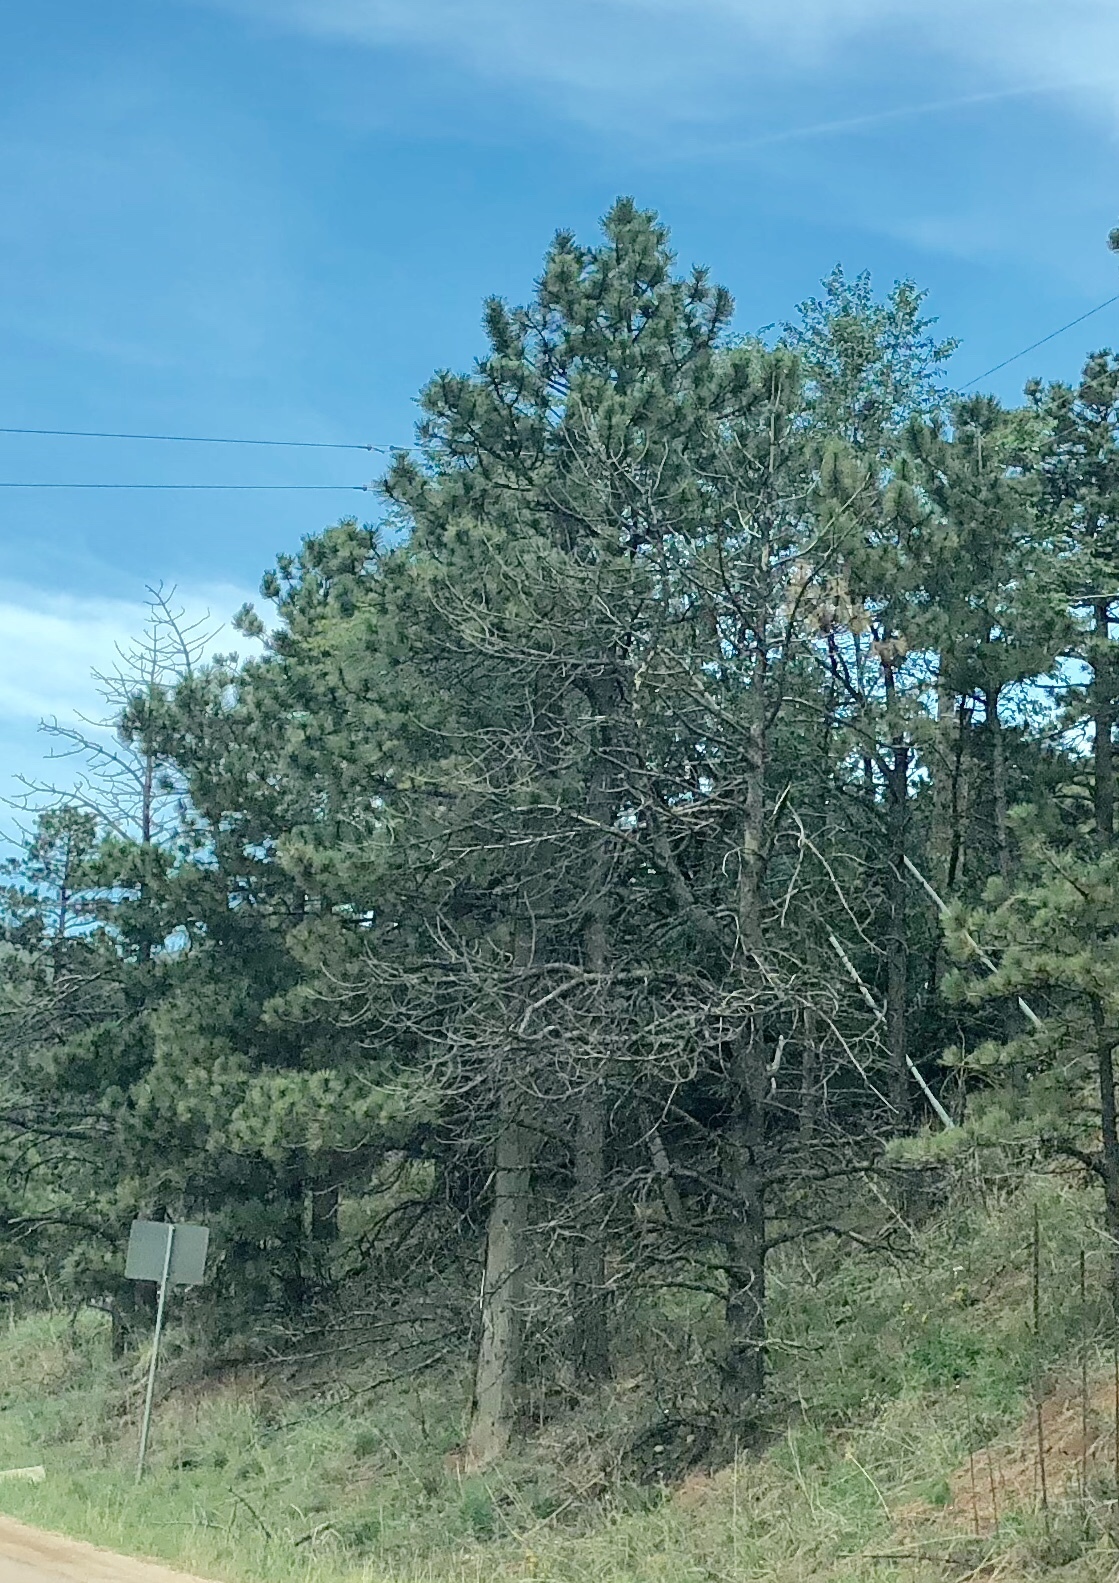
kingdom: Plantae
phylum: Tracheophyta
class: Pinopsida
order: Pinales
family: Pinaceae
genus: Pinus
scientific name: Pinus ponderosa
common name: Western yellow-pine
